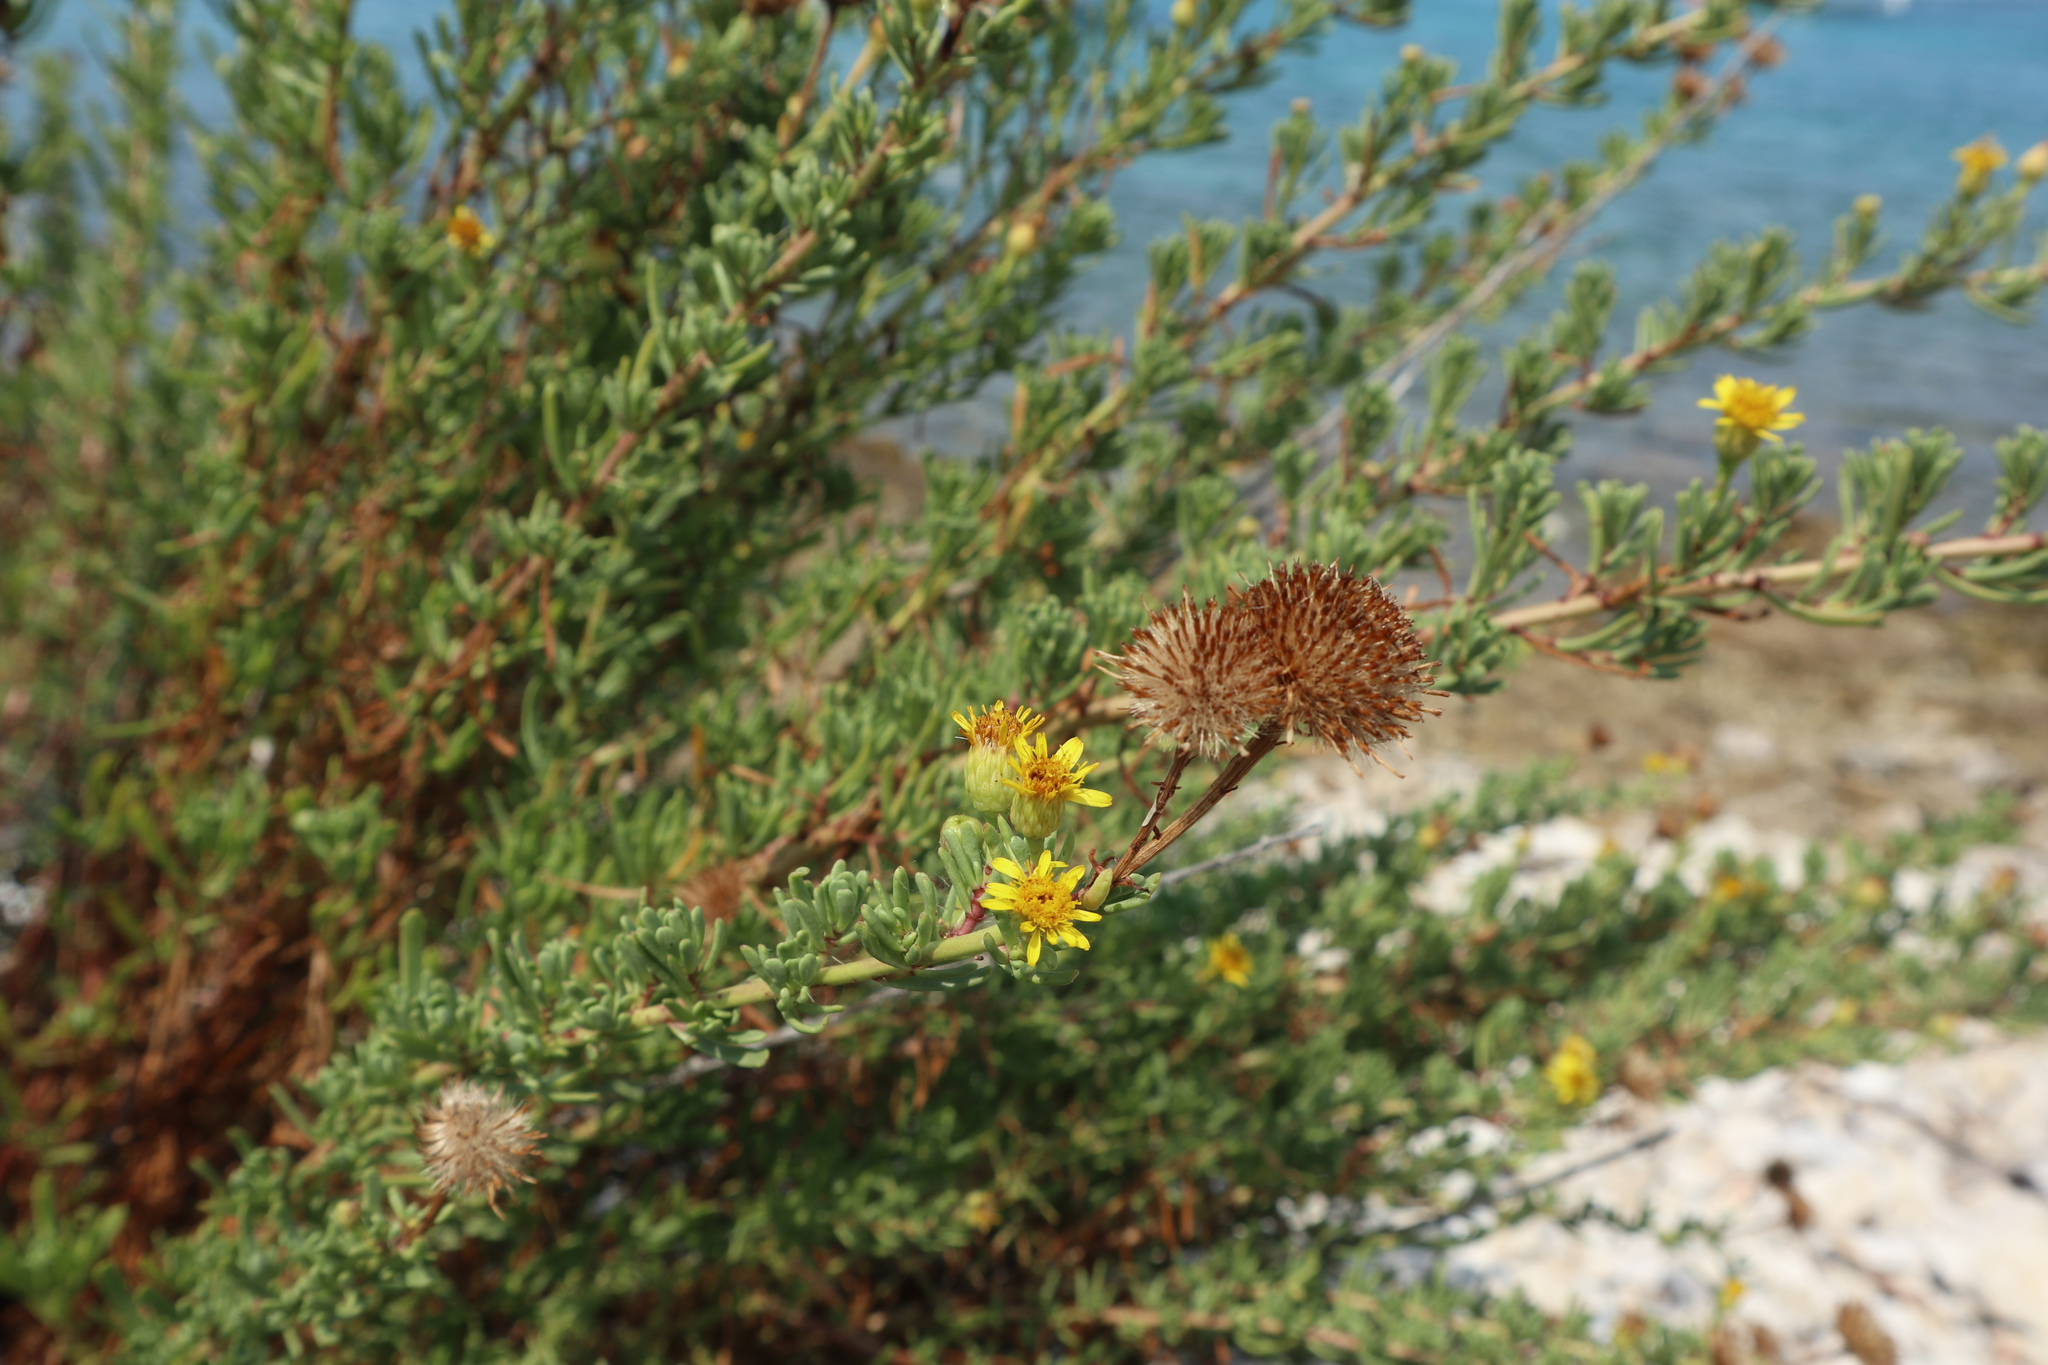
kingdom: Plantae
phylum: Tracheophyta
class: Magnoliopsida
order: Asterales
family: Asteraceae
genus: Limbarda
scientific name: Limbarda crithmoides
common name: Golden samphire
